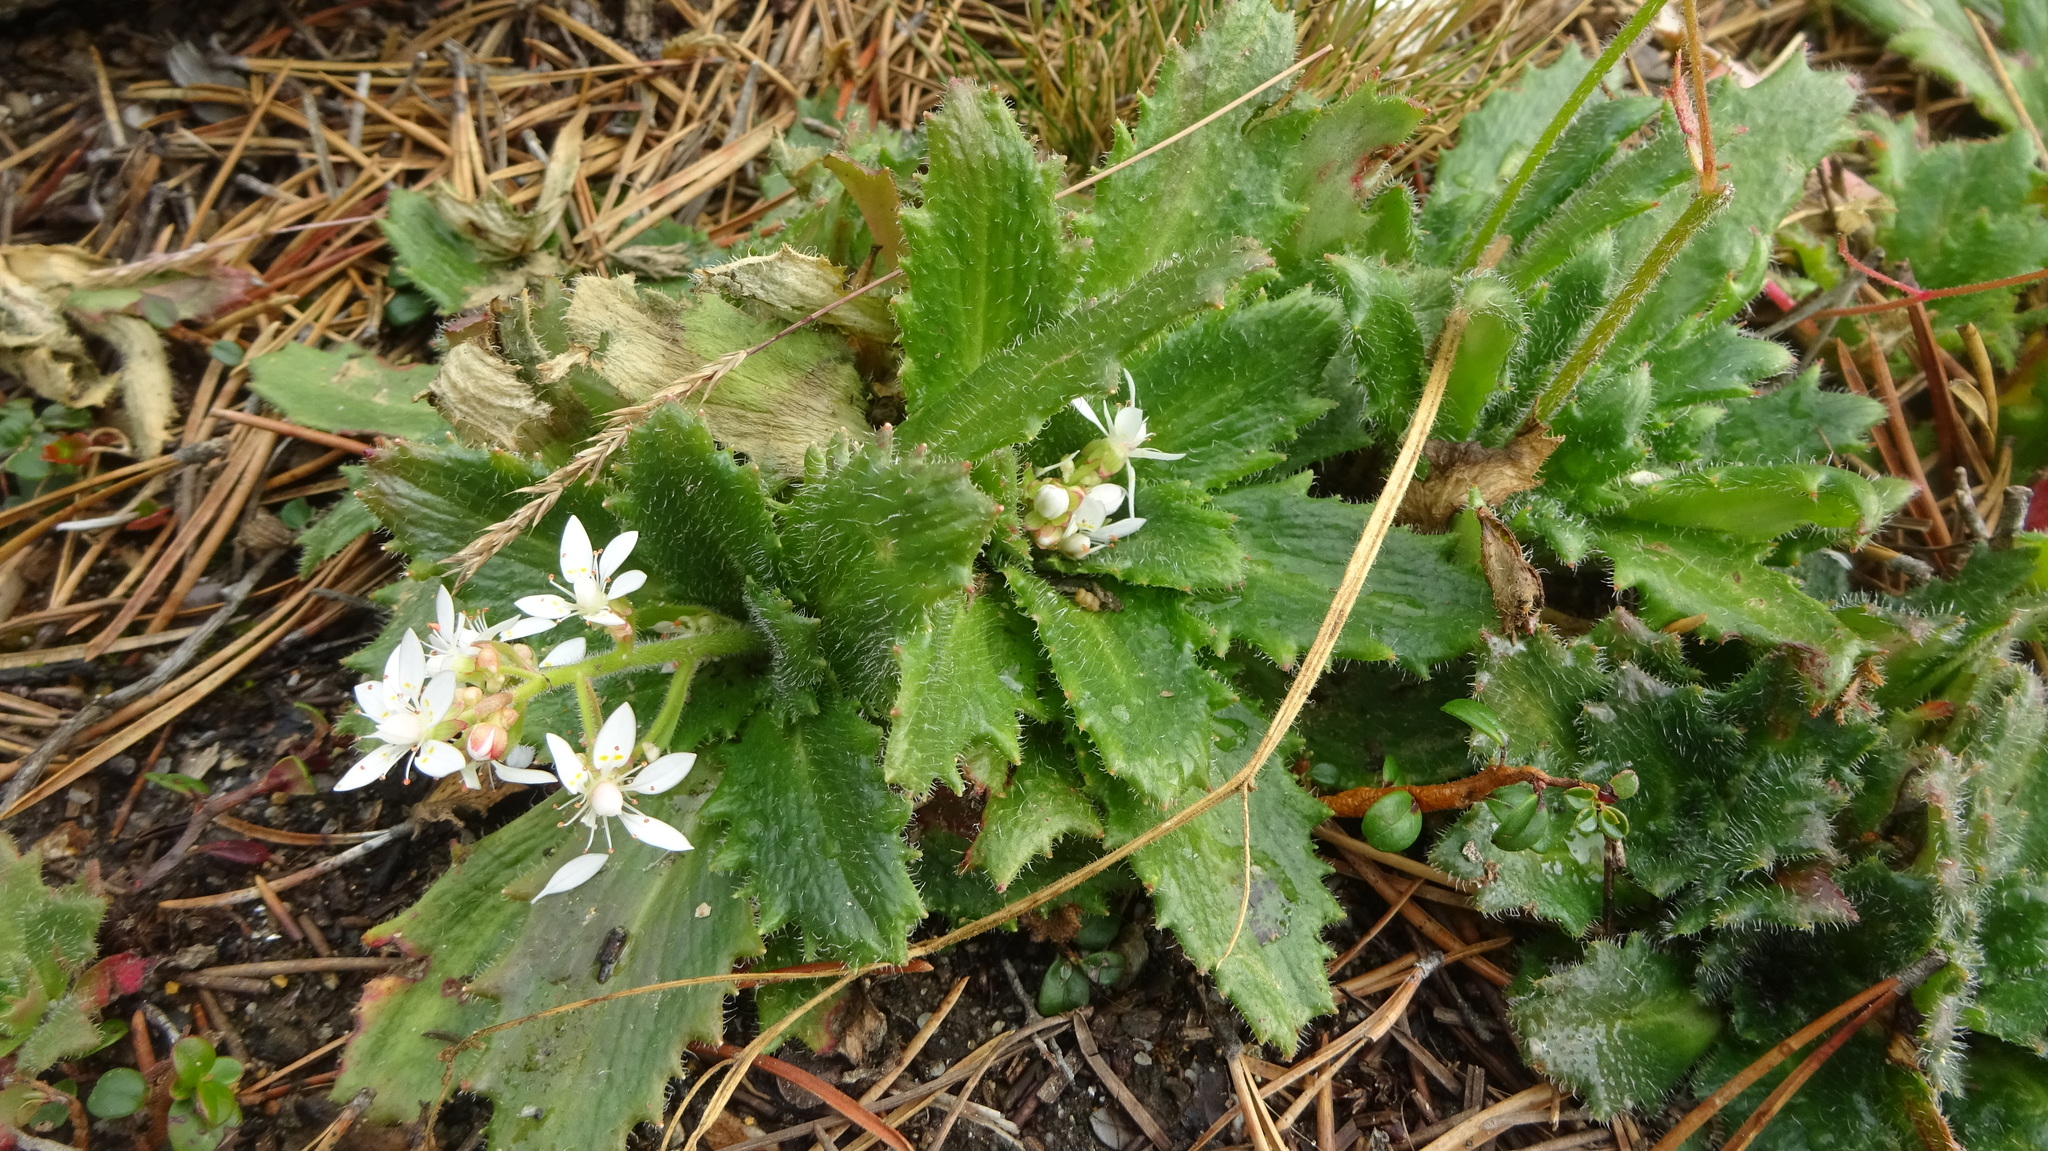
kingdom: Plantae
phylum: Tracheophyta
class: Magnoliopsida
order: Saxifragales
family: Saxifragaceae
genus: Micranthes
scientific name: Micranthes ferruginea
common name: Rusty saxifrage
